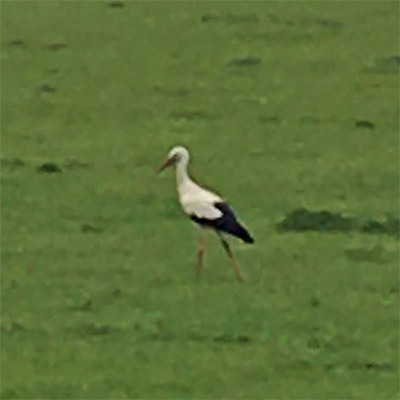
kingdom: Animalia
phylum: Chordata
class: Aves
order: Ciconiiformes
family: Ciconiidae
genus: Ciconia
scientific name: Ciconia ciconia
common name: White stork
